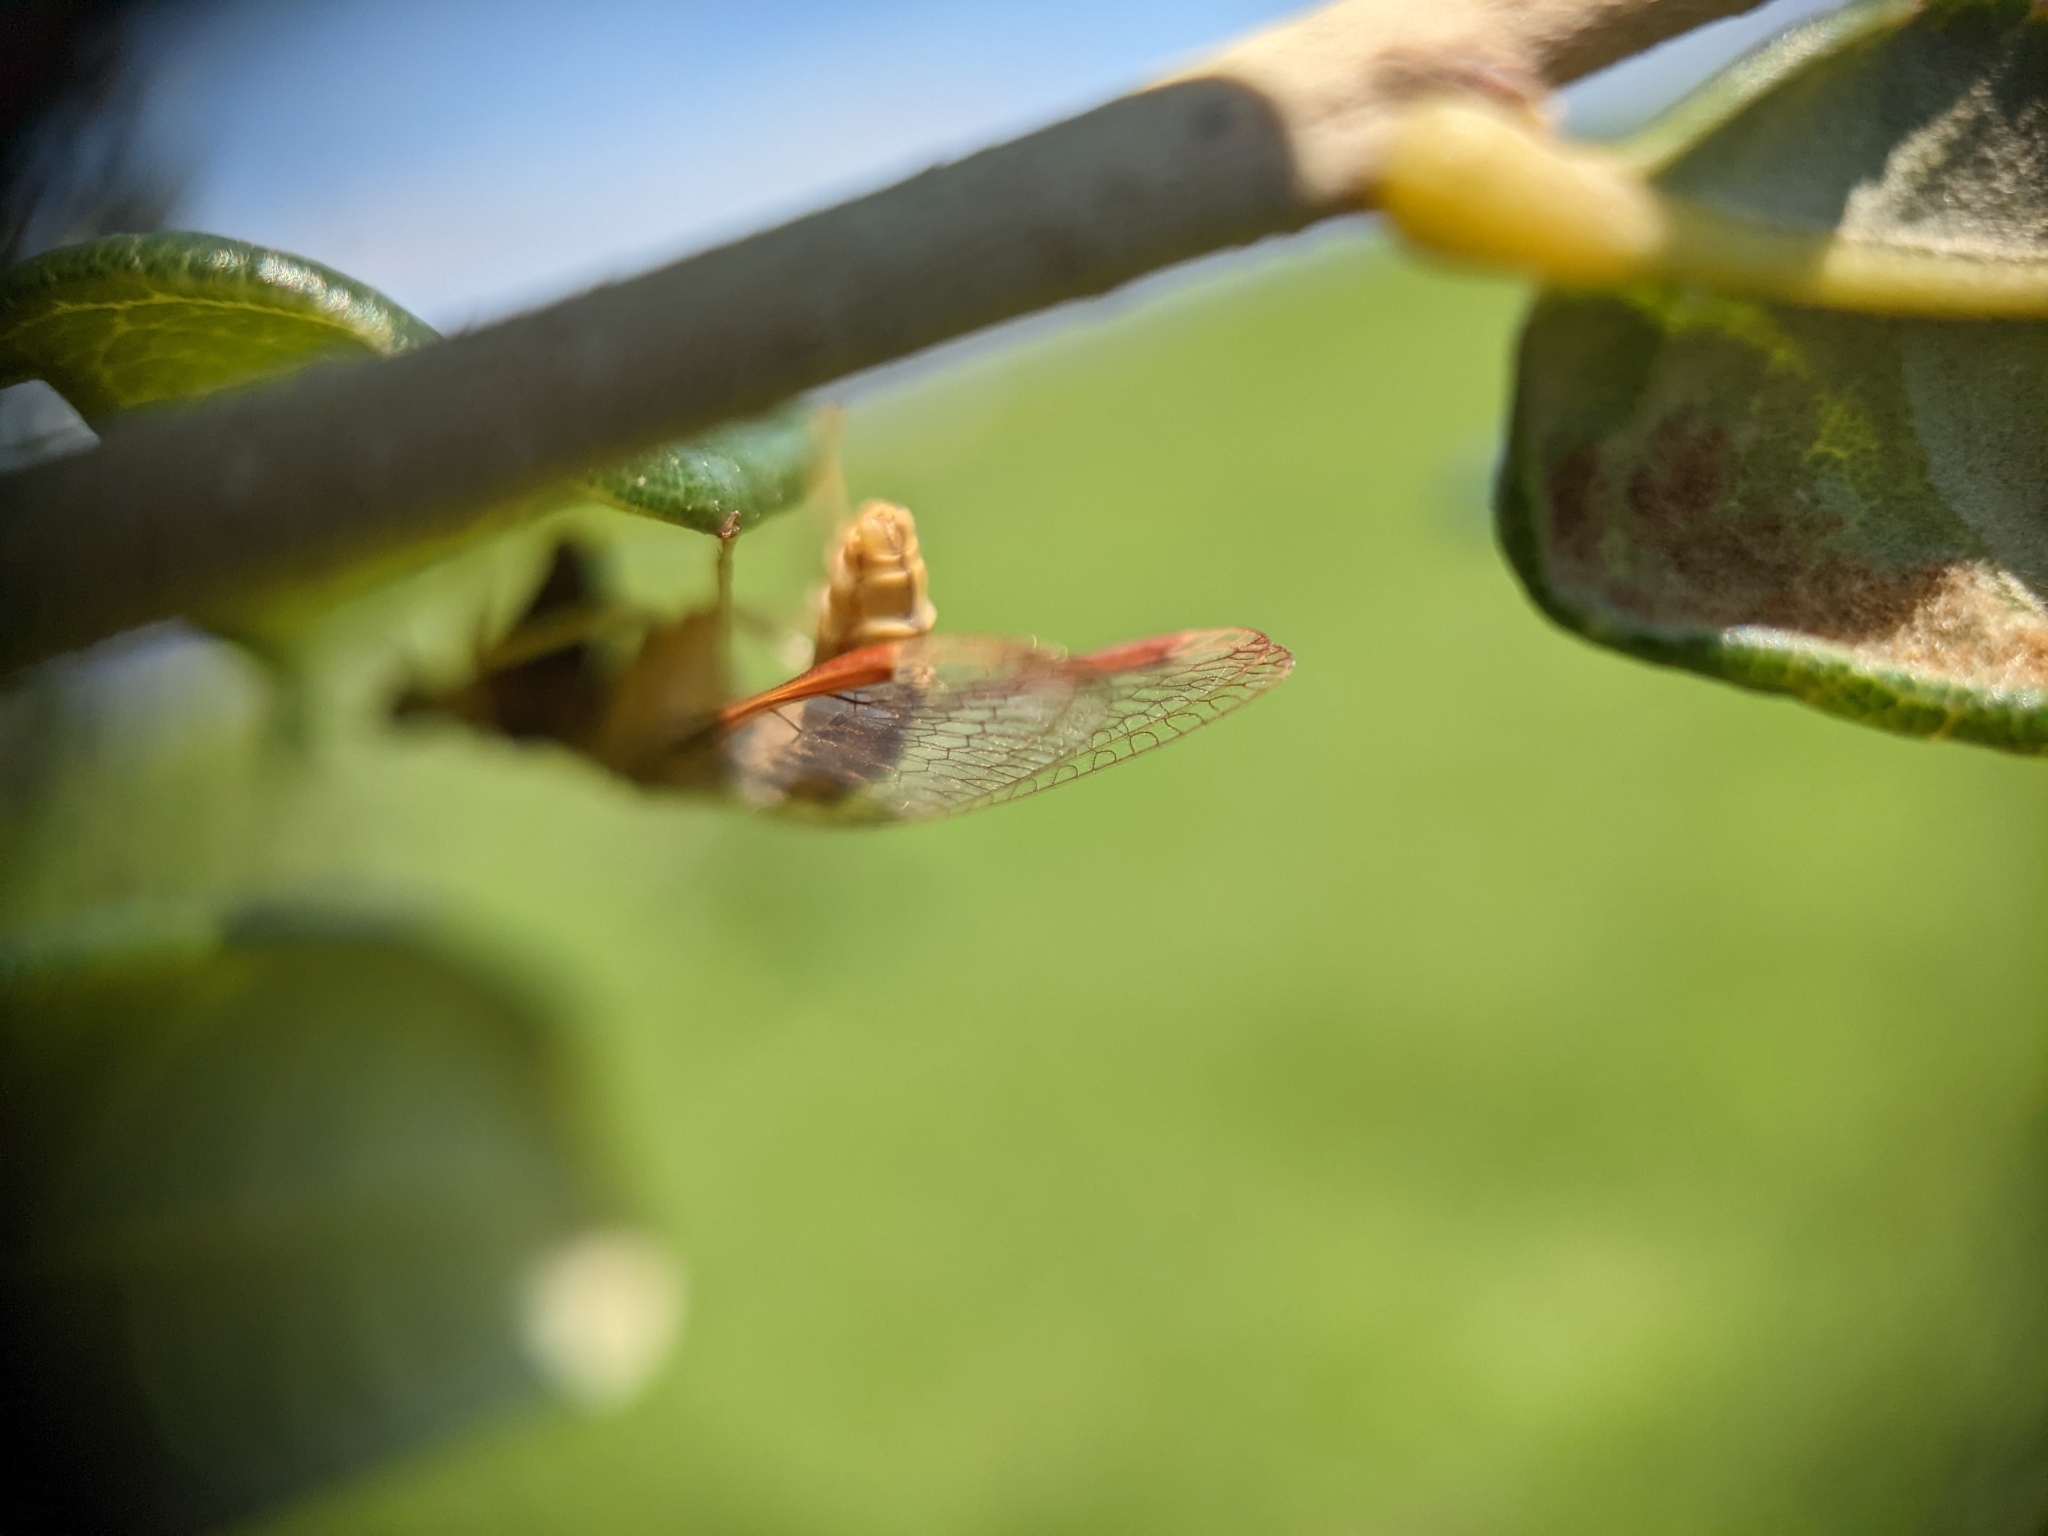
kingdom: Animalia
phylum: Arthropoda
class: Insecta
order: Neuroptera
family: Mantispidae
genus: Dicromantispa
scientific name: Dicromantispa interrupta
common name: Four-spotted mantidfly
